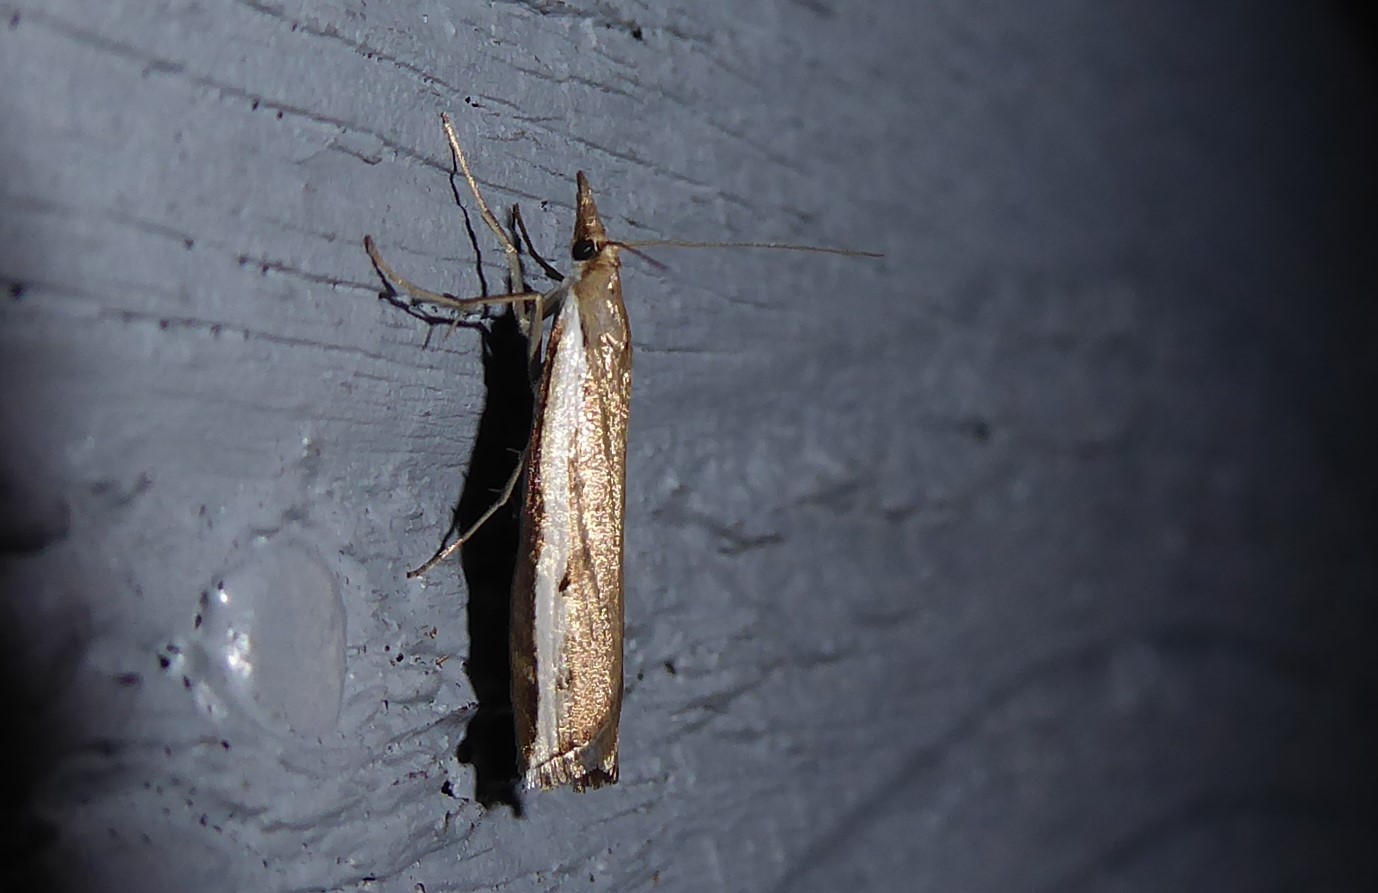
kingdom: Animalia
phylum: Arthropoda
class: Insecta
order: Lepidoptera
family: Crambidae
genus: Orocrambus
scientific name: Orocrambus flexuosellus
